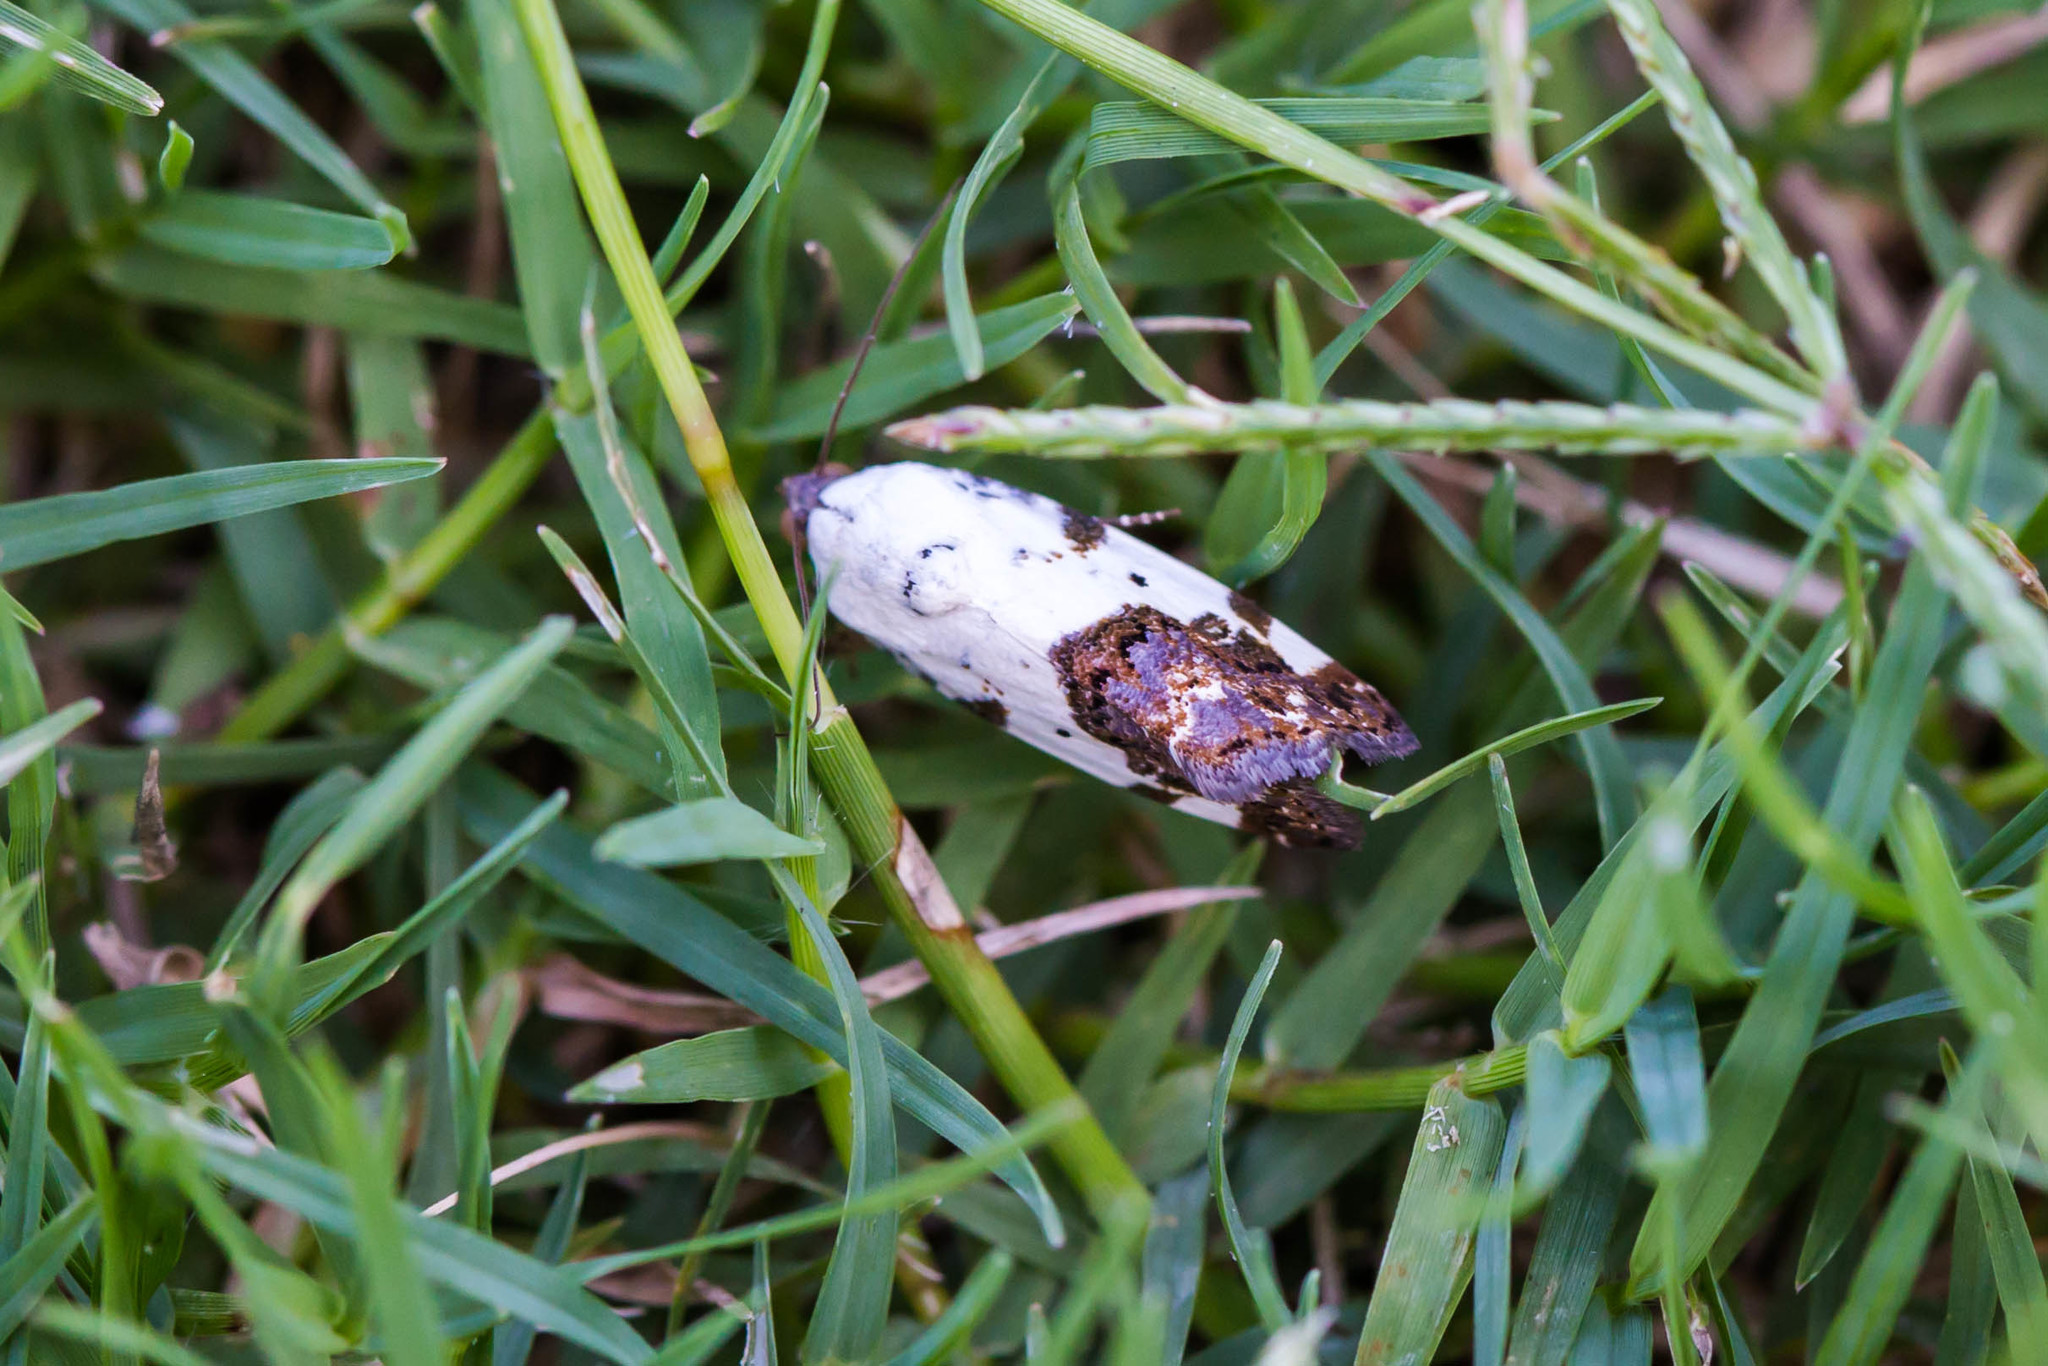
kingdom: Animalia
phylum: Arthropoda
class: Insecta
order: Lepidoptera
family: Noctuidae
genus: Acontia
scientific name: Acontia aprica
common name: Nun
